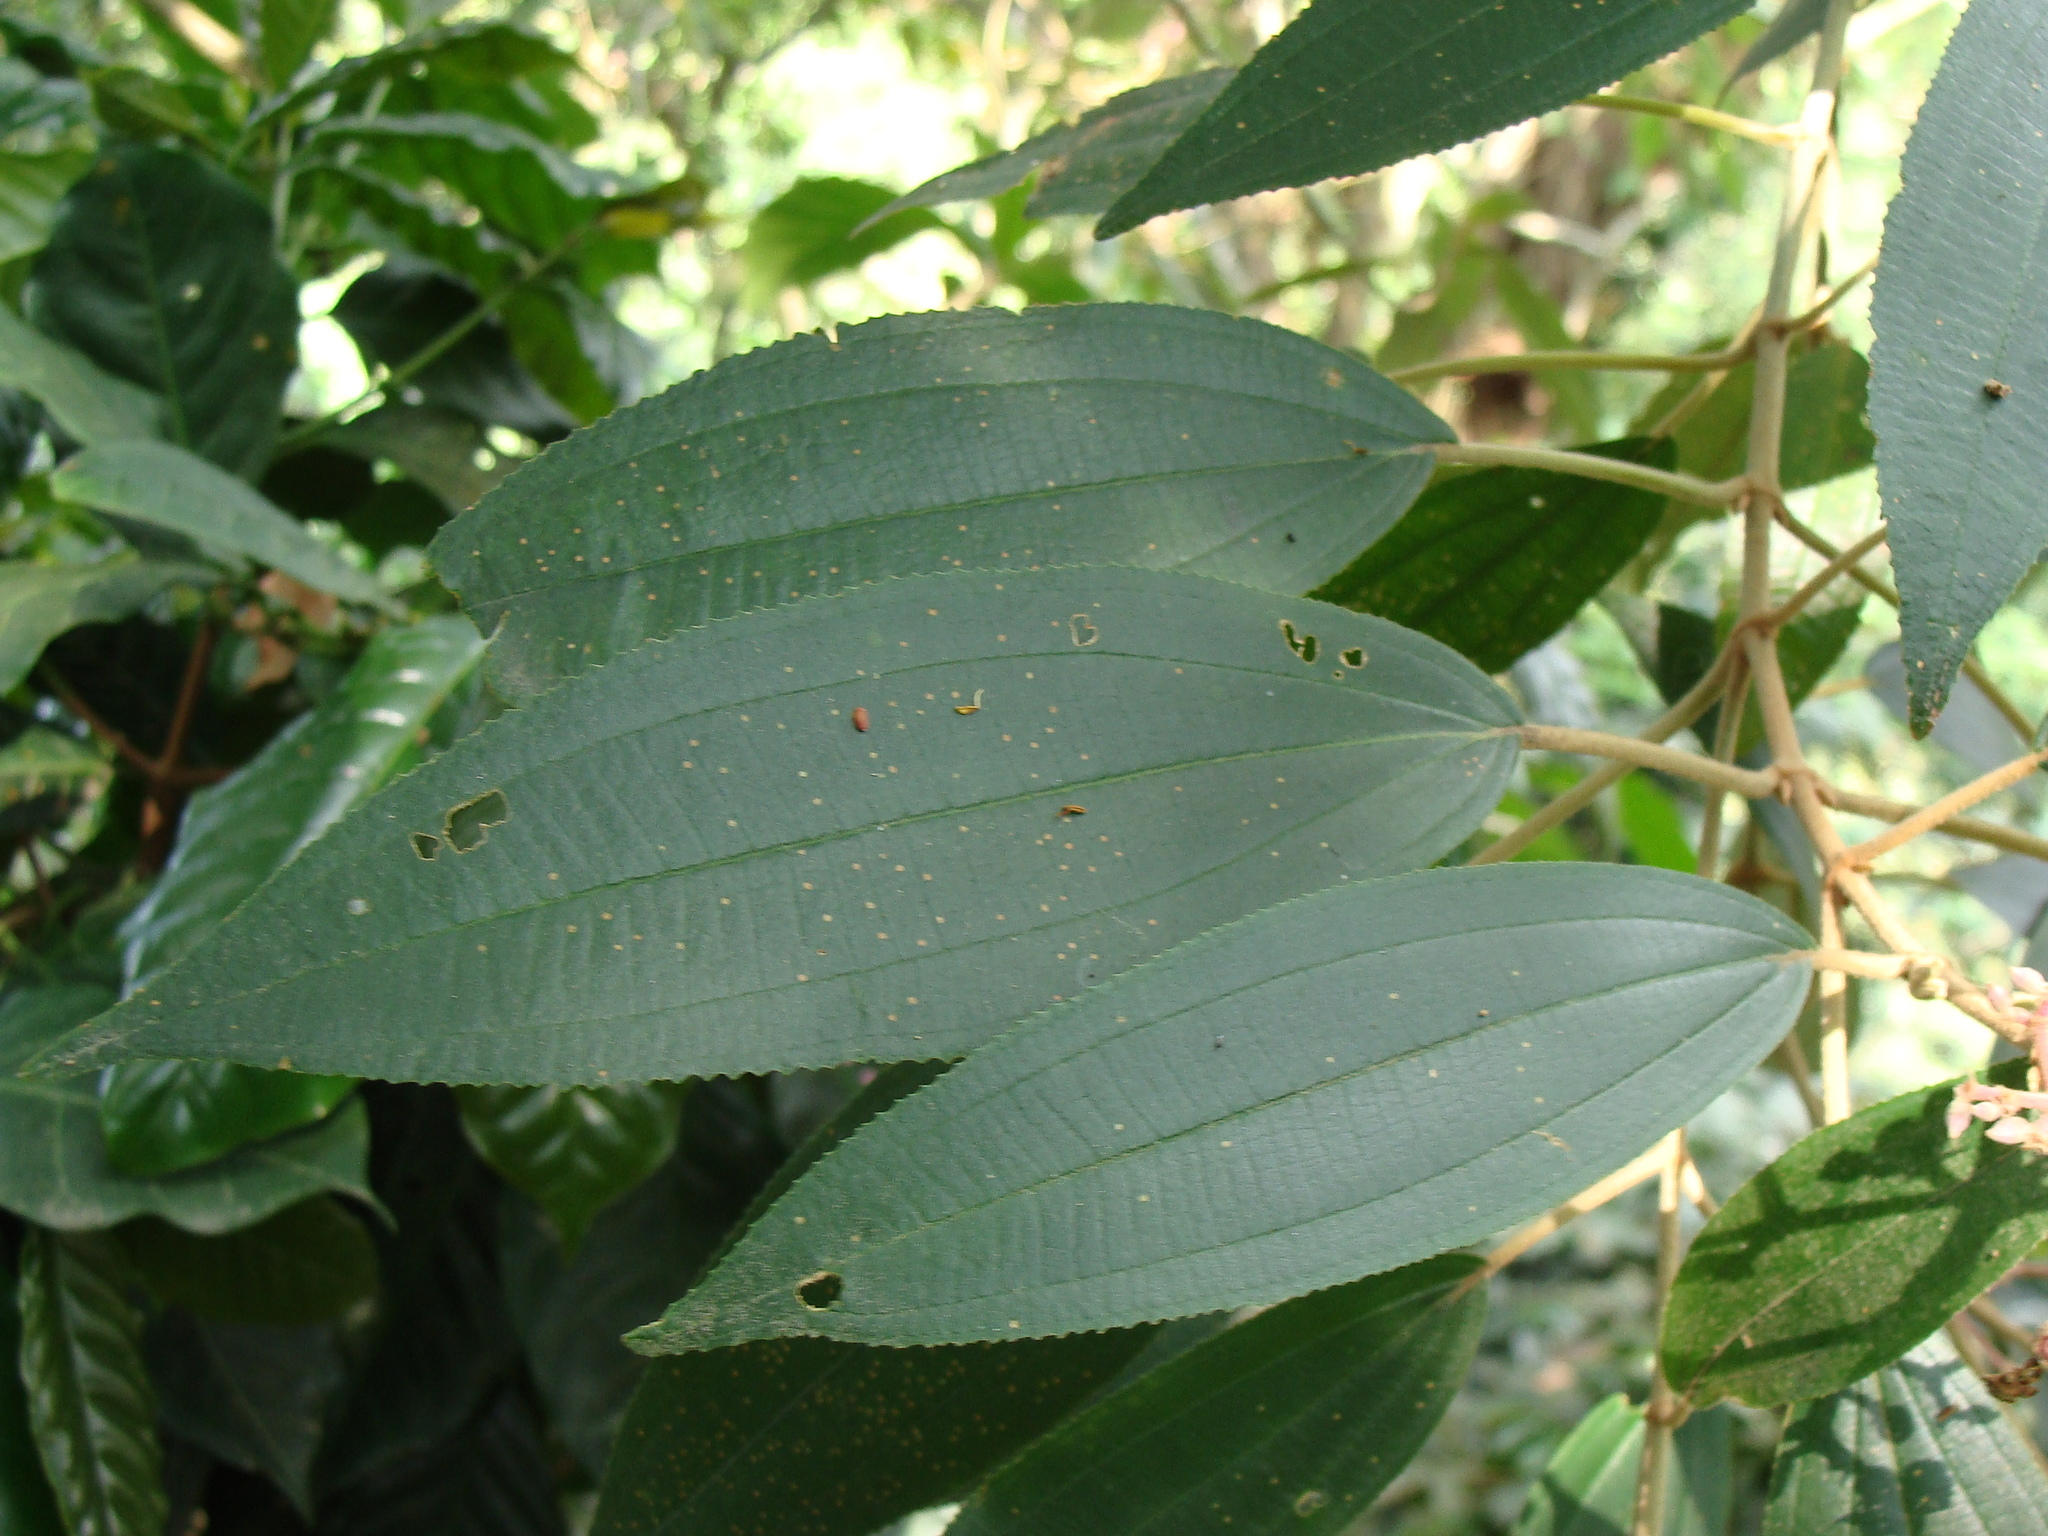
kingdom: Plantae
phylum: Tracheophyta
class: Magnoliopsida
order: Myrtales
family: Melastomataceae
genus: Miconia
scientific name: Miconia xalapensis
